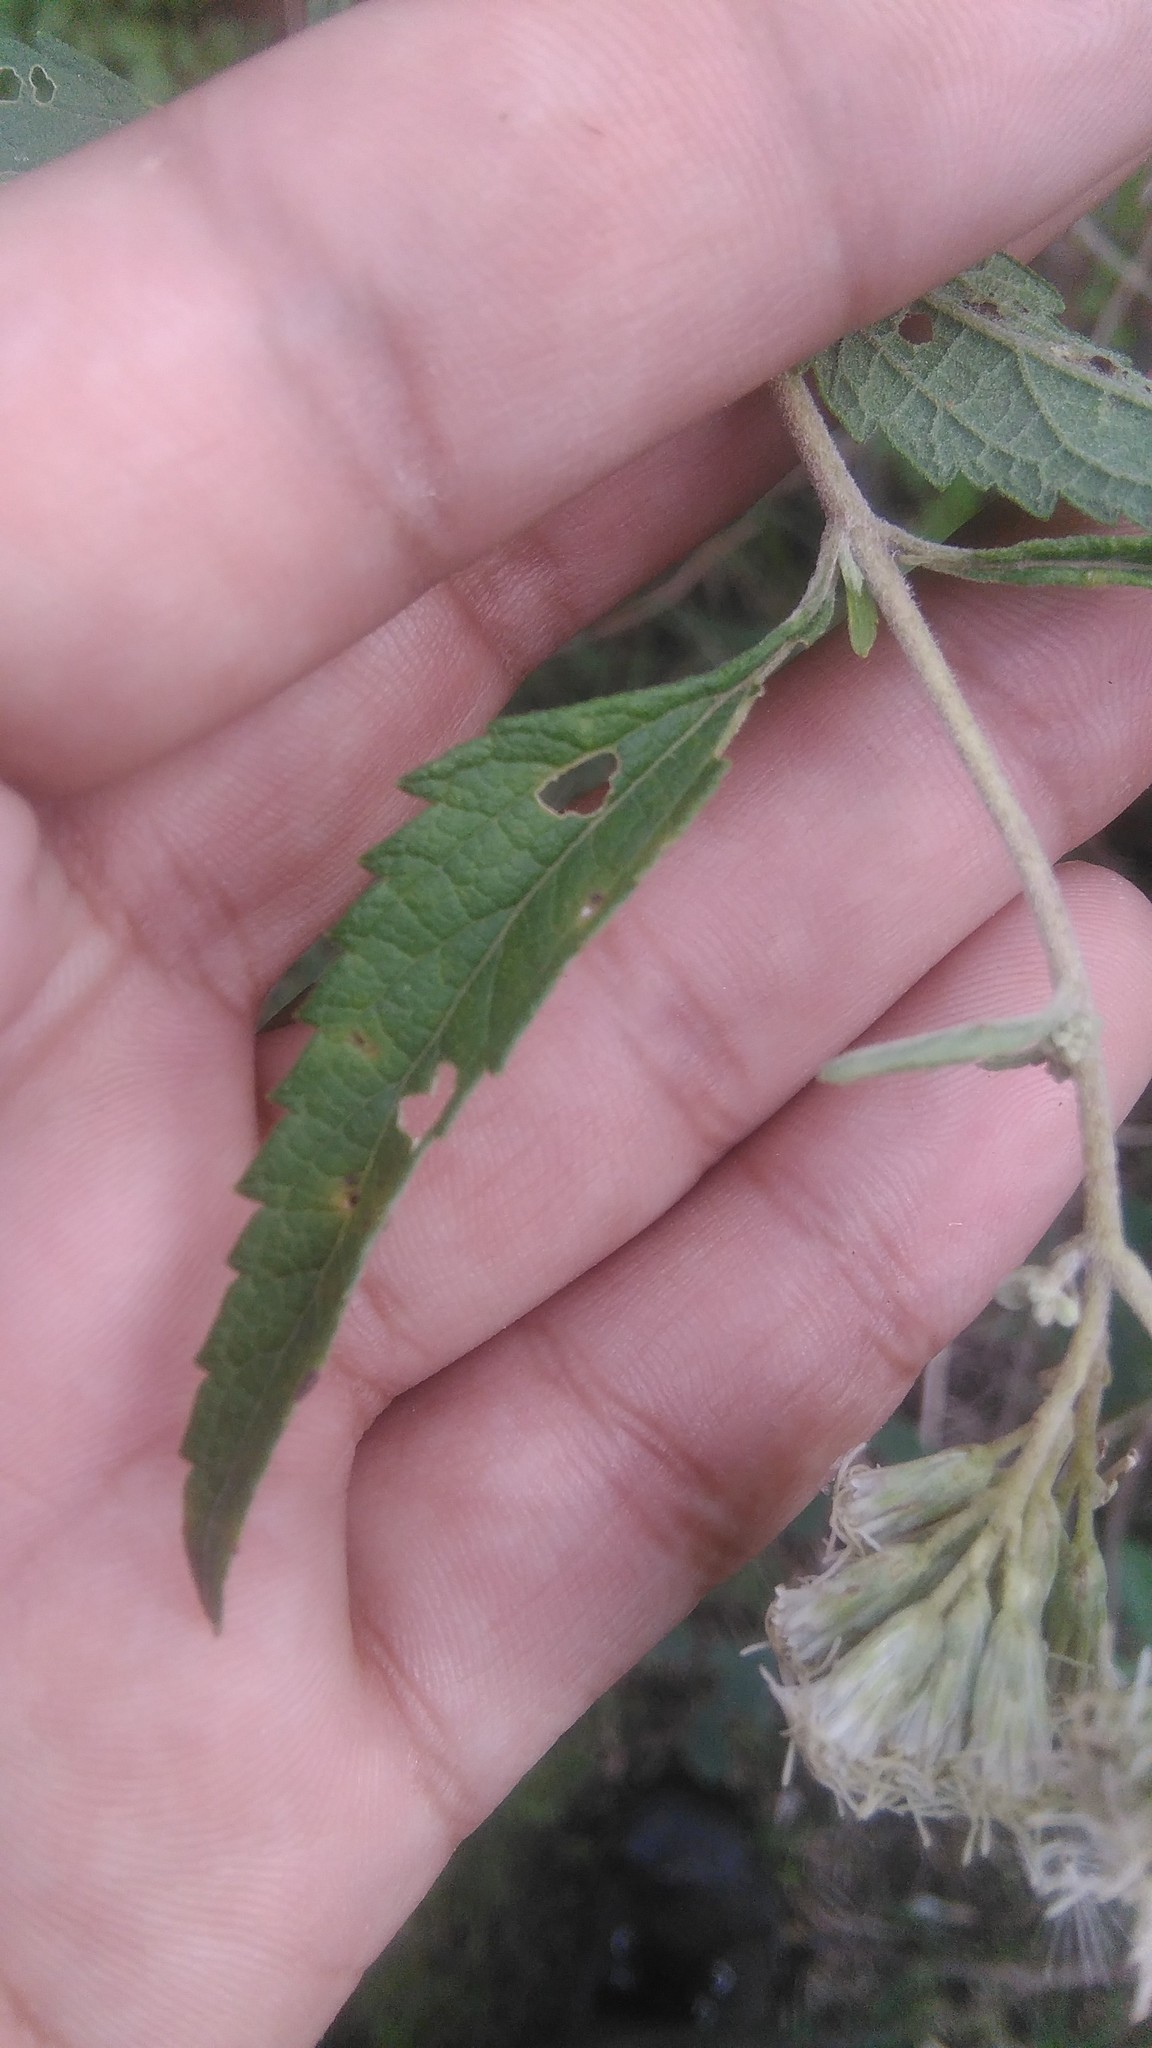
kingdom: Plantae
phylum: Tracheophyta
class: Magnoliopsida
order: Asterales
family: Asteraceae
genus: Austroeupatorium
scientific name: Austroeupatorium inulifolium
